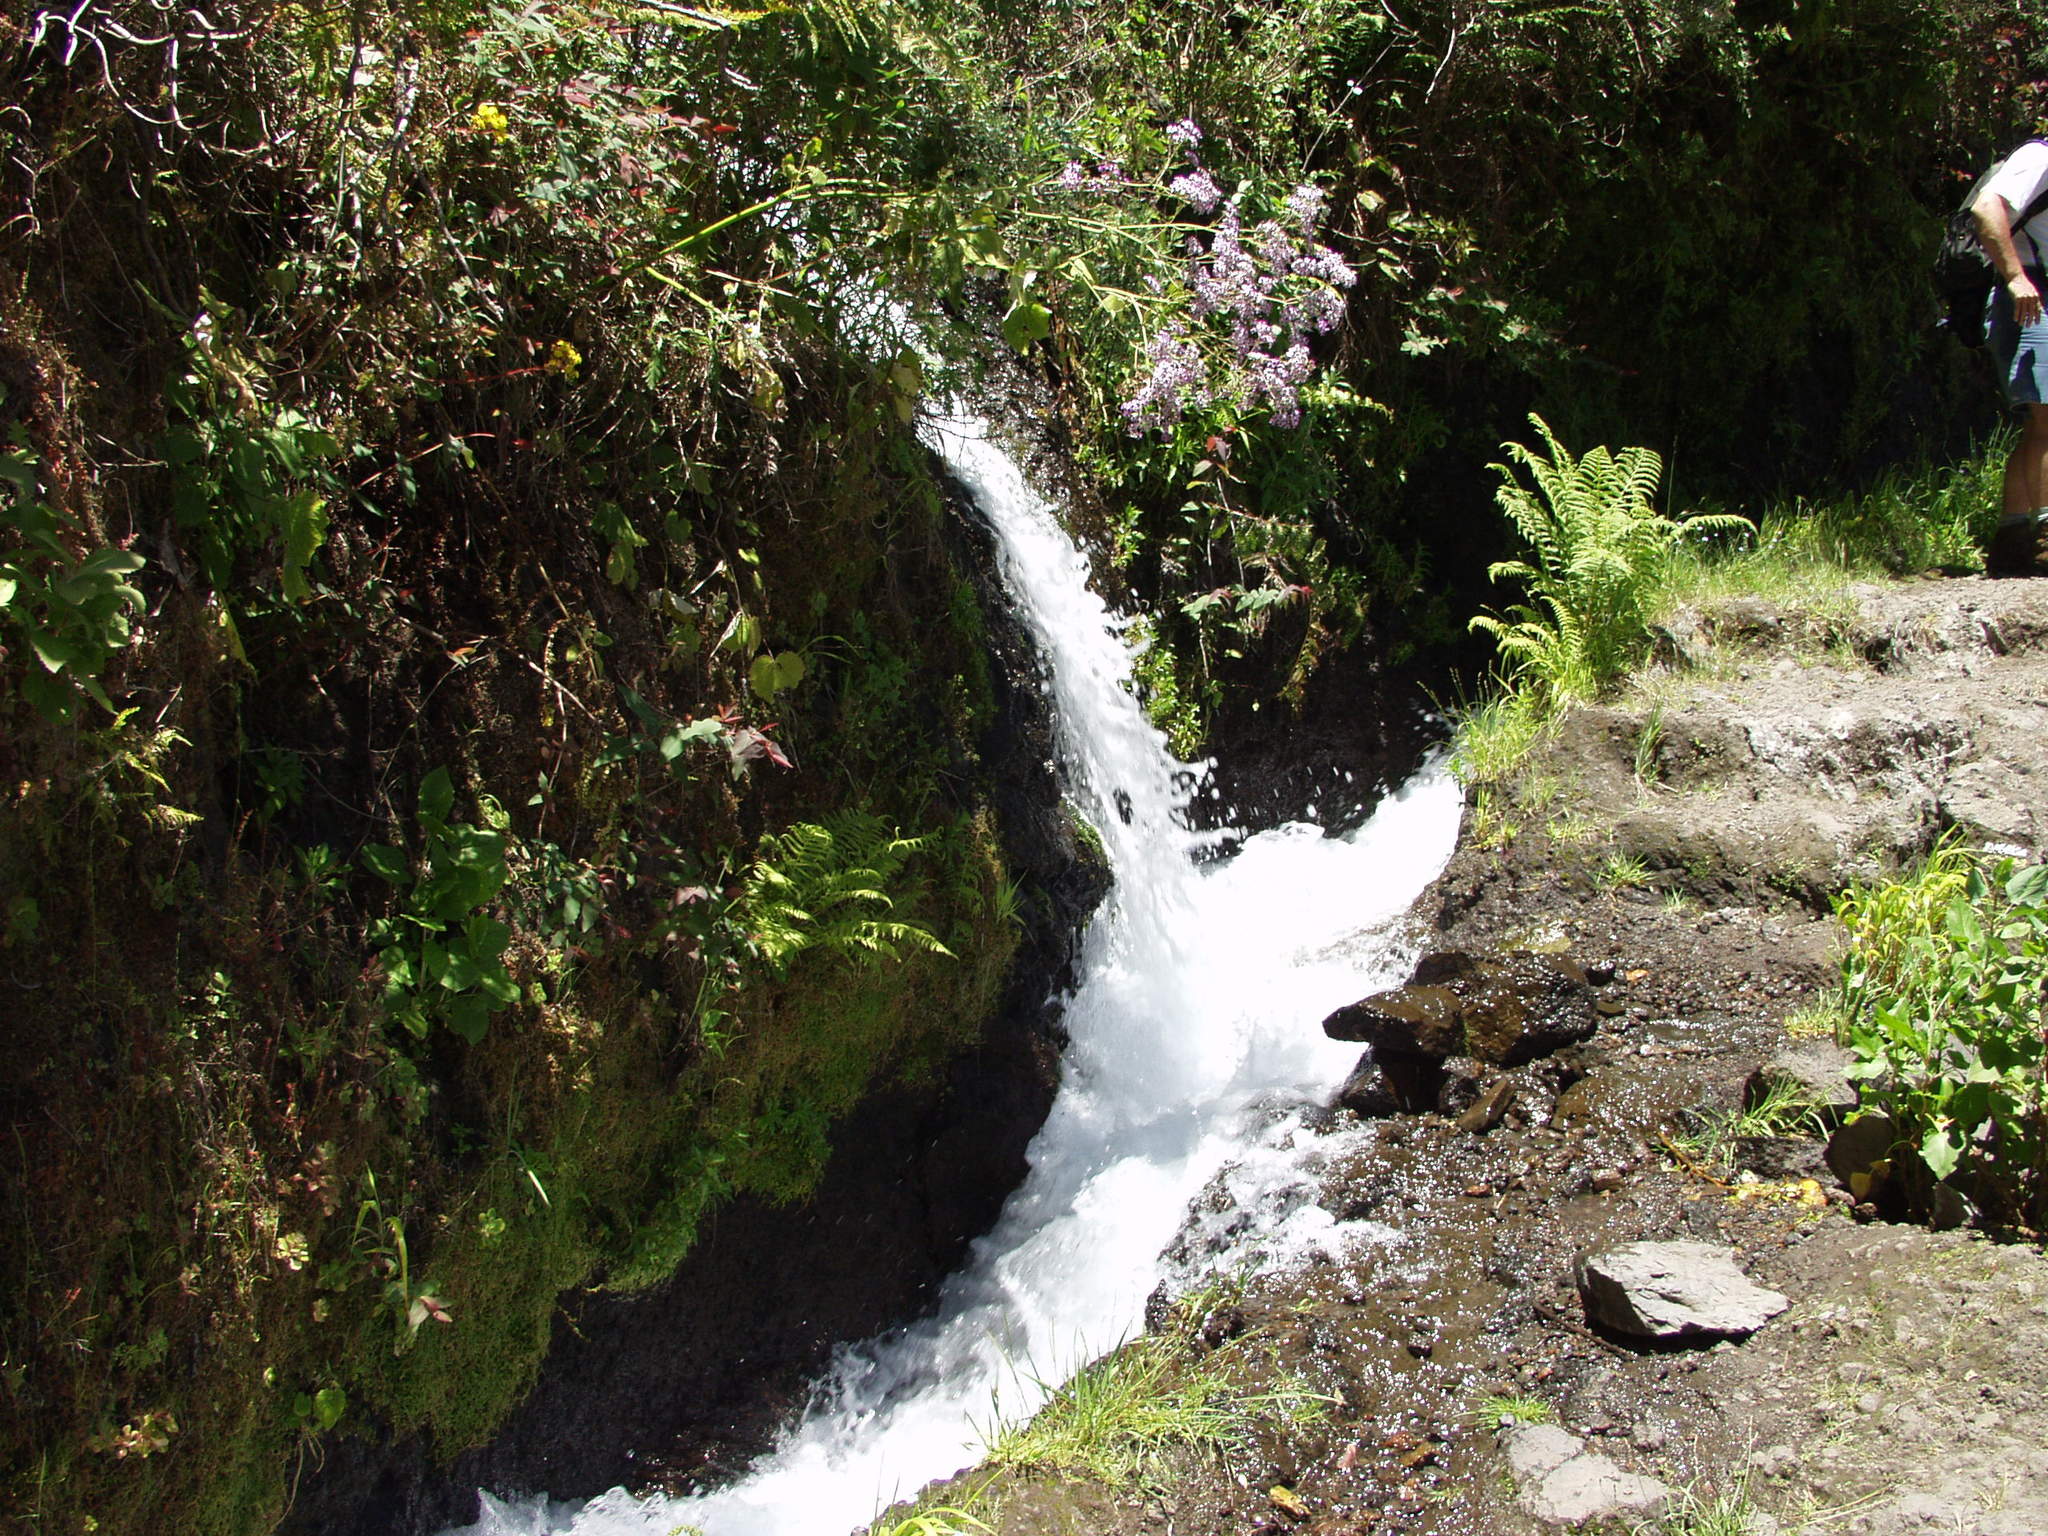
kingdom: Plantae
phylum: Tracheophyta
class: Magnoliopsida
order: Asterales
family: Asteraceae
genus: Pericallis
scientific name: Pericallis papyracea
